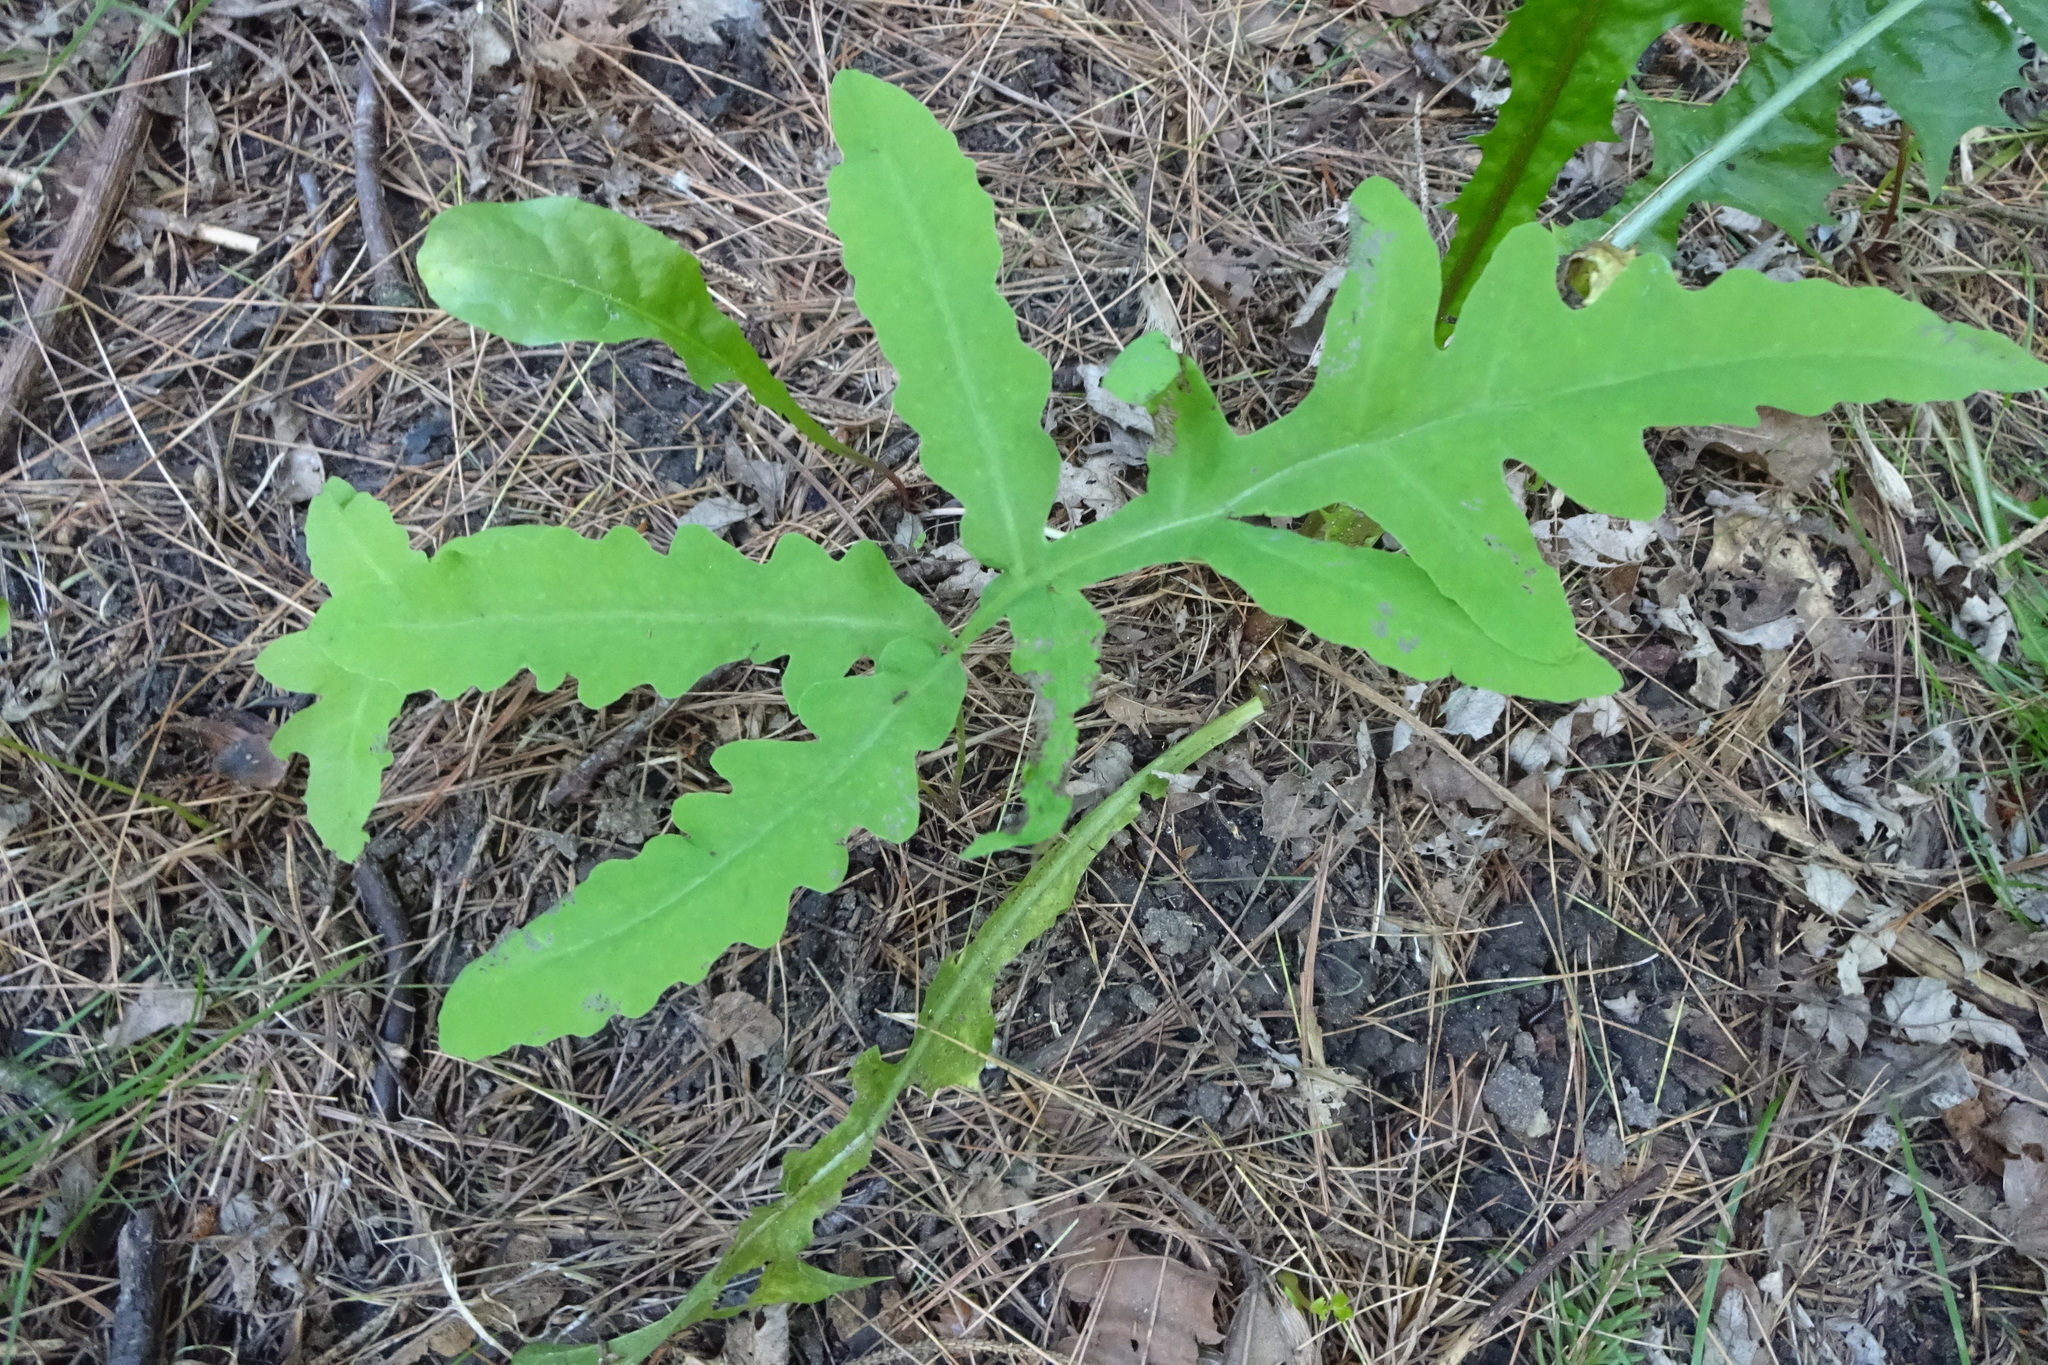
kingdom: Plantae
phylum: Tracheophyta
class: Polypodiopsida
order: Polypodiales
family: Onocleaceae
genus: Onoclea
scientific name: Onoclea sensibilis
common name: Sensitive fern
